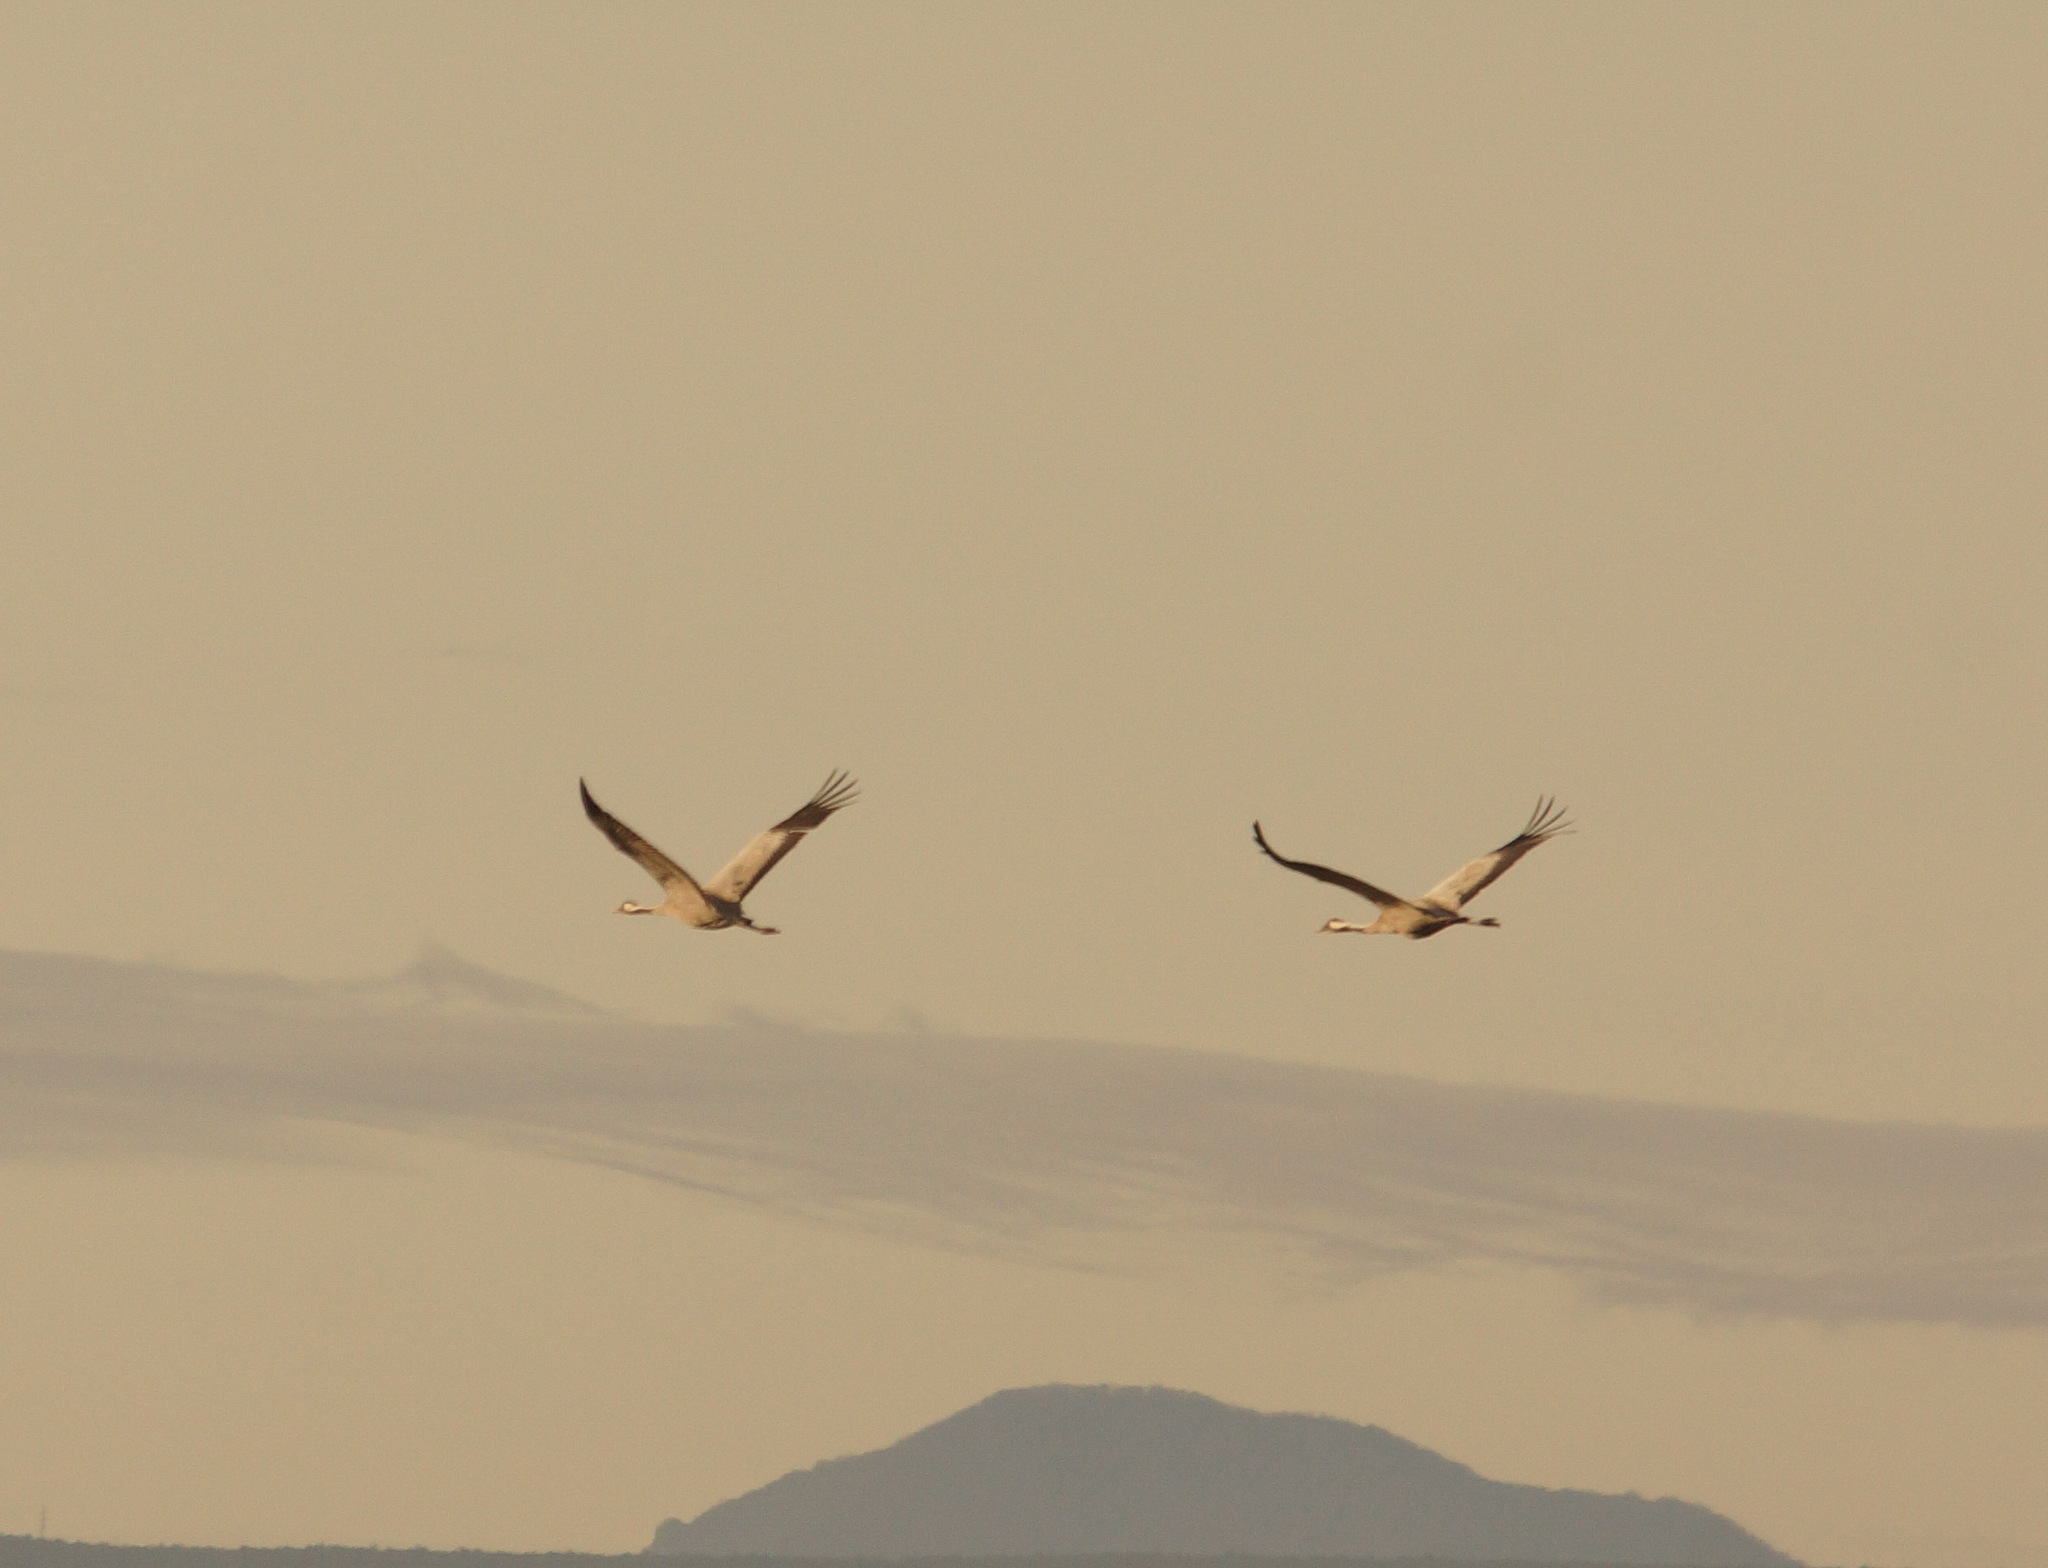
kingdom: Animalia
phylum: Chordata
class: Aves
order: Gruiformes
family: Gruidae
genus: Grus
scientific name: Grus grus
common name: Common crane
